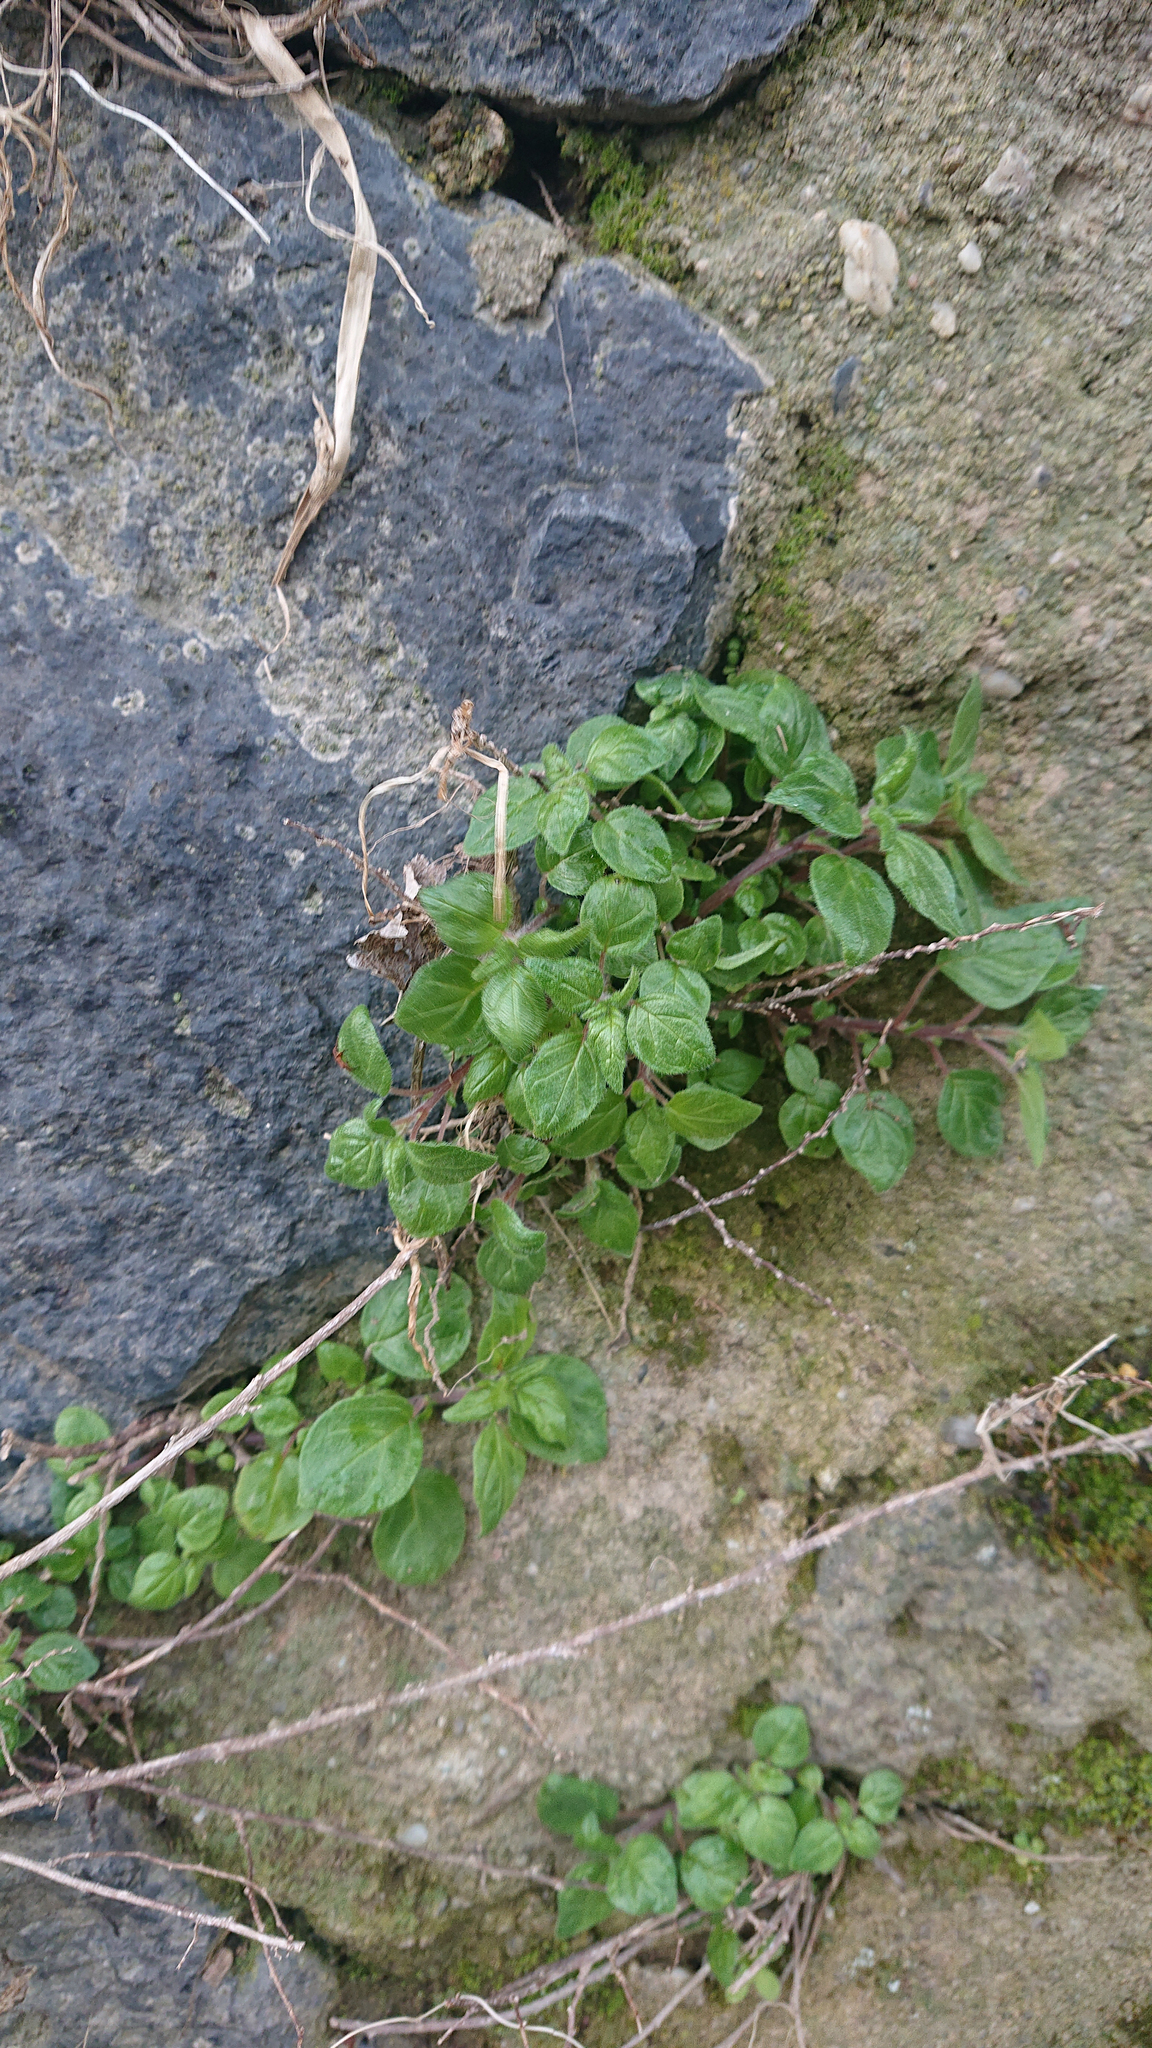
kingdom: Plantae
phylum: Tracheophyta
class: Magnoliopsida
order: Rosales
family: Urticaceae
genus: Parietaria
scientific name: Parietaria judaica
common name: Pellitory-of-the-wall
